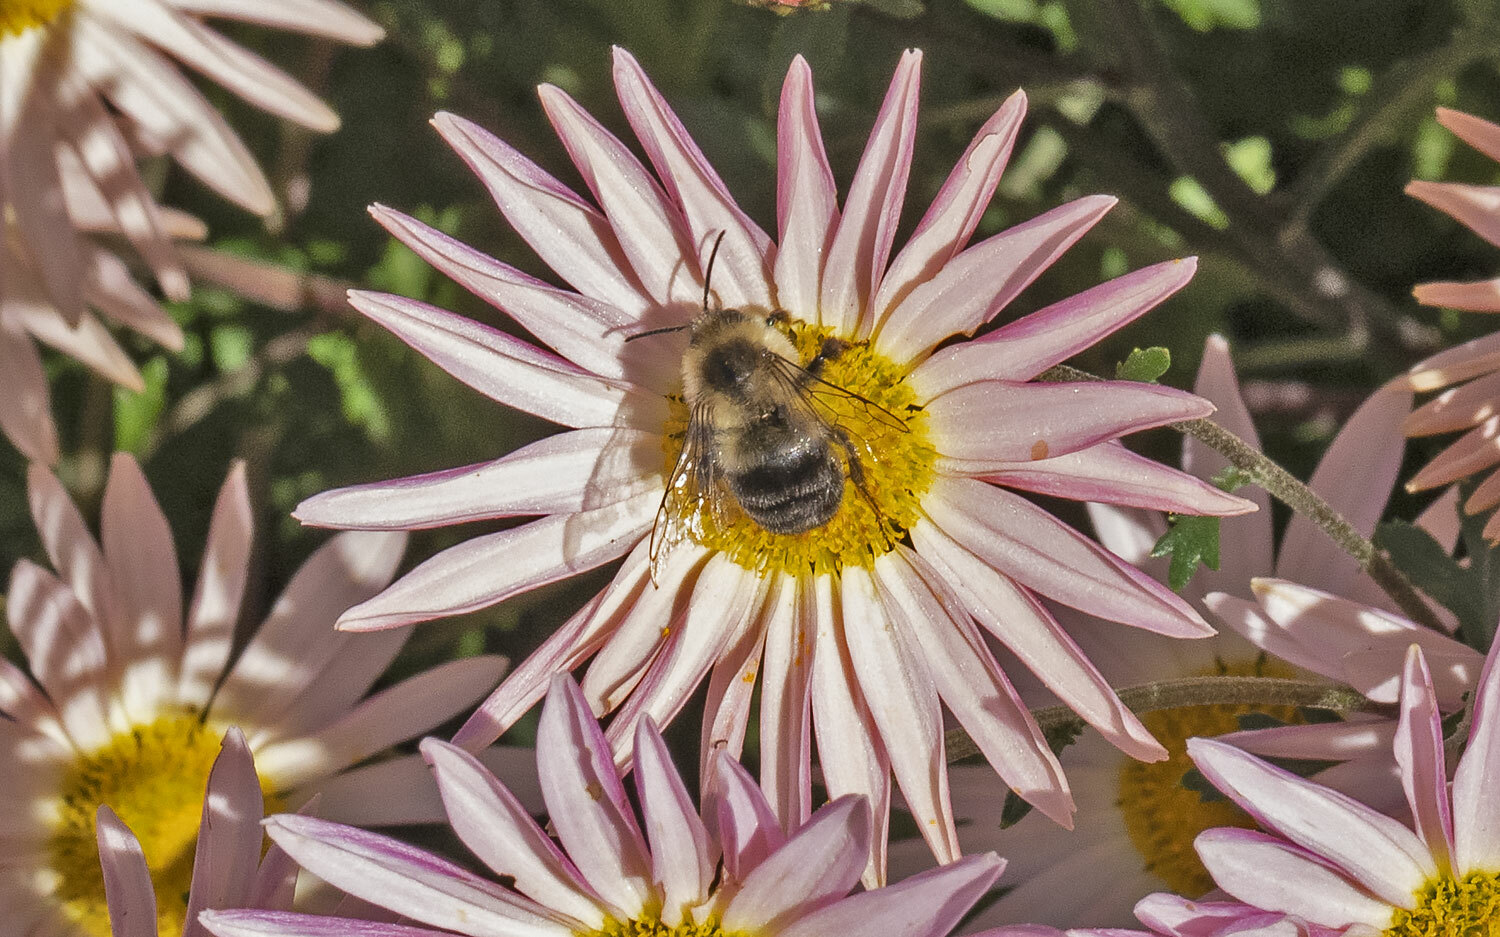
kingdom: Animalia
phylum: Arthropoda
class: Insecta
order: Hymenoptera
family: Apidae
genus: Bombus
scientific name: Bombus impatiens
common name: Common eastern bumble bee
